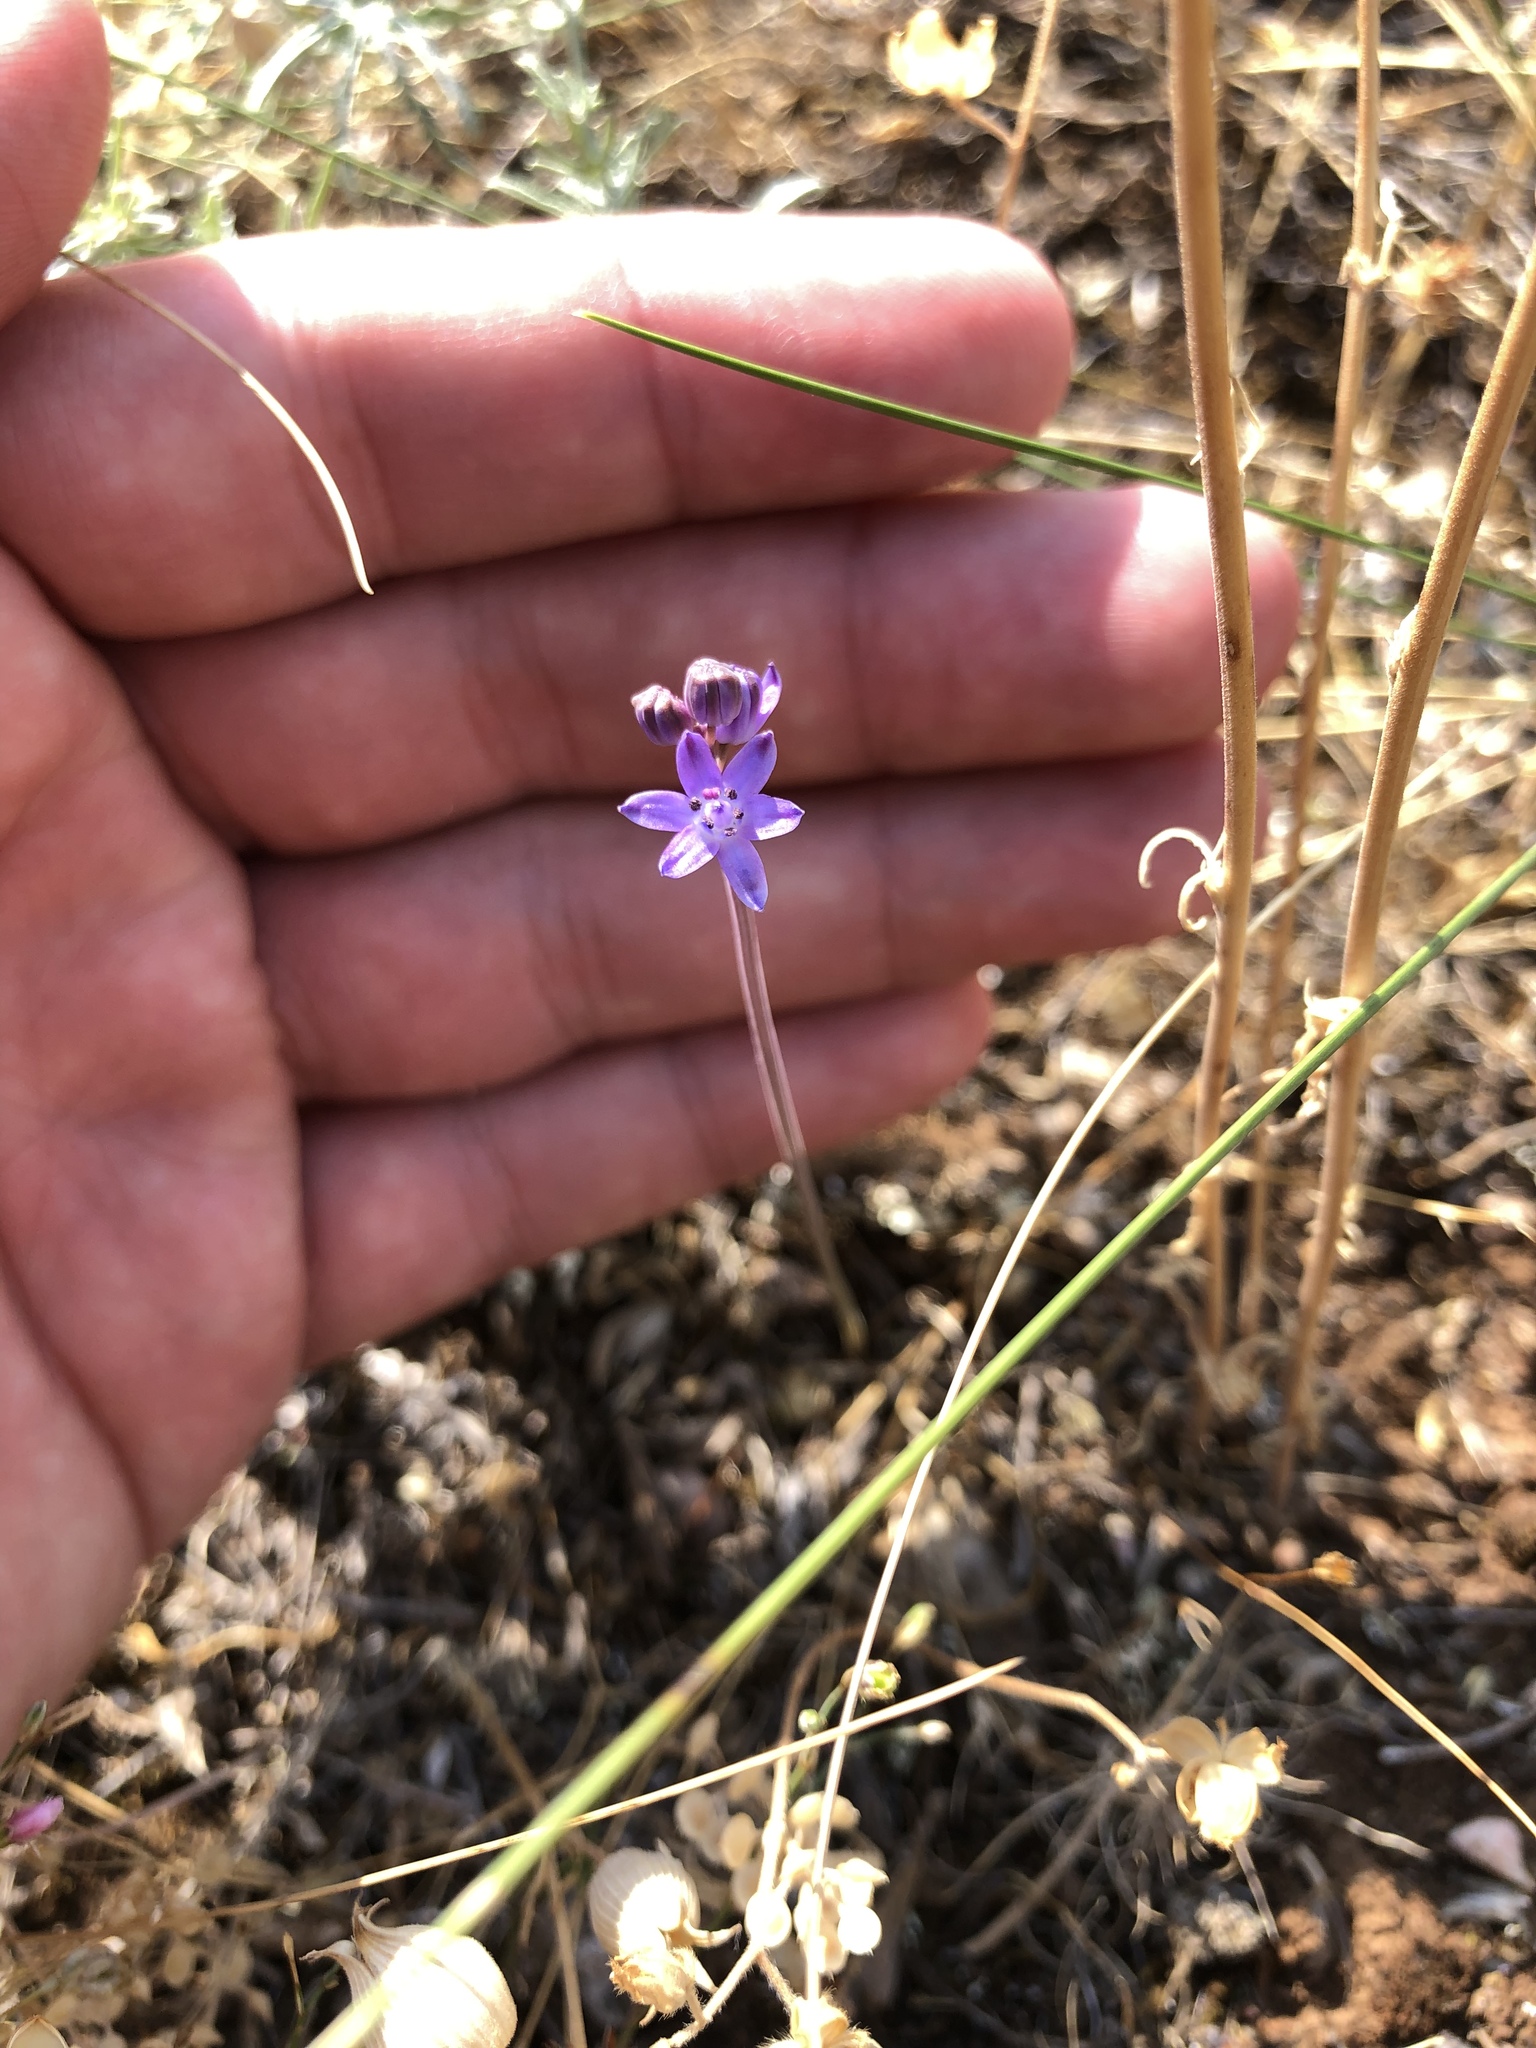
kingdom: Plantae
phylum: Tracheophyta
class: Liliopsida
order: Asparagales
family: Asparagaceae
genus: Prospero
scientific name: Prospero autumnale
